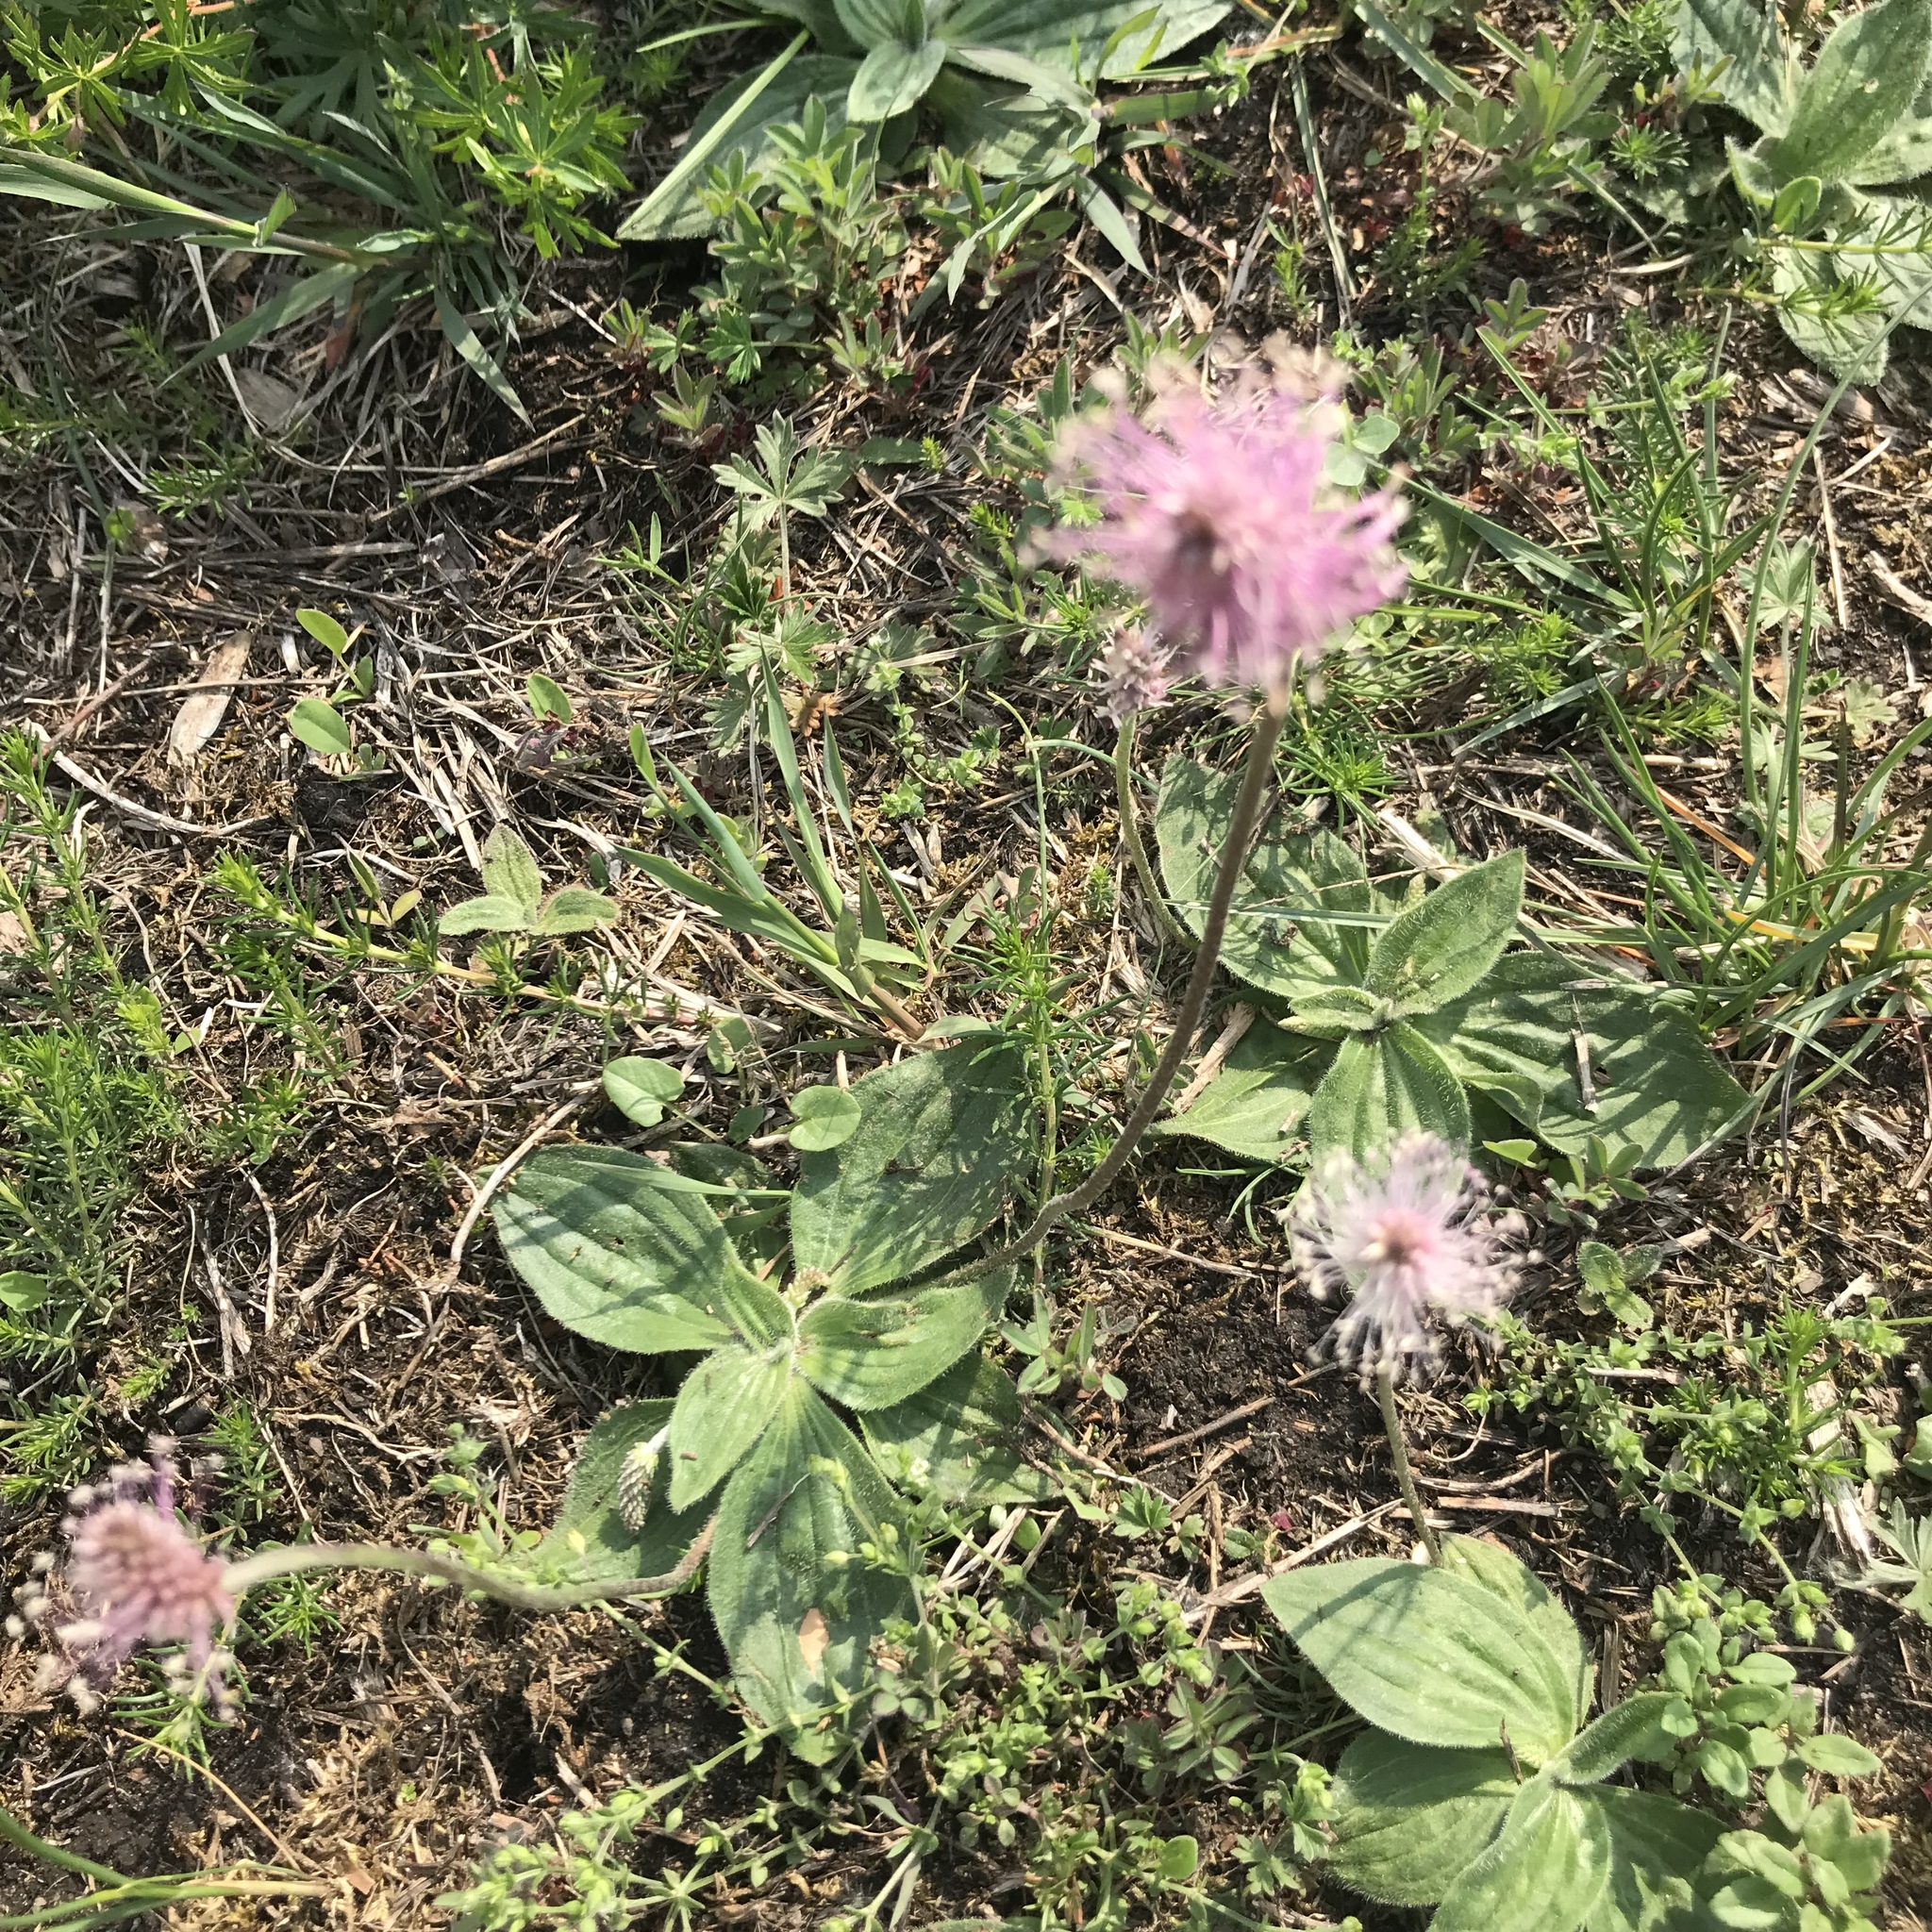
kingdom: Plantae
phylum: Tracheophyta
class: Magnoliopsida
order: Lamiales
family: Plantaginaceae
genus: Plantago
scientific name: Plantago media
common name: Hoary plantain
